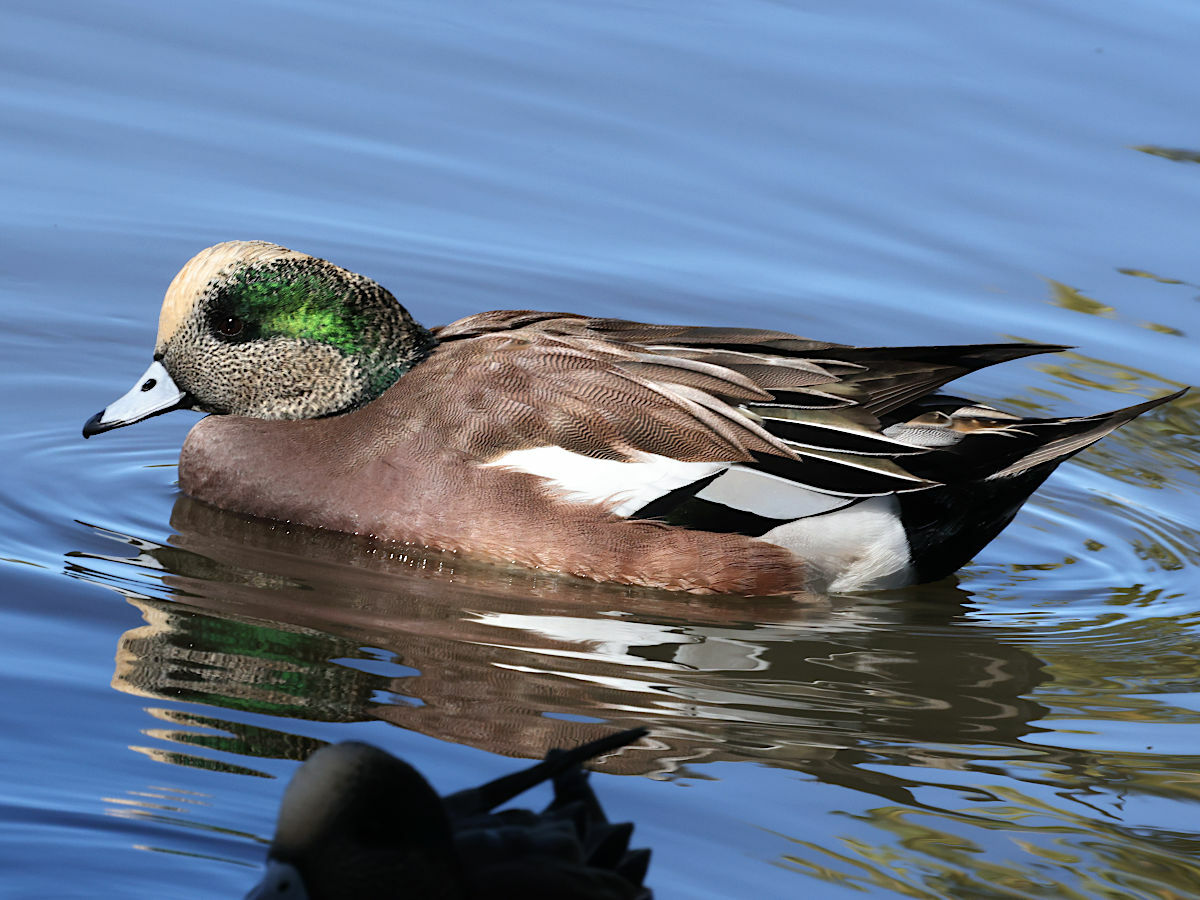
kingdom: Animalia
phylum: Chordata
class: Aves
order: Anseriformes
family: Anatidae
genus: Mareca
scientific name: Mareca americana
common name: American wigeon
